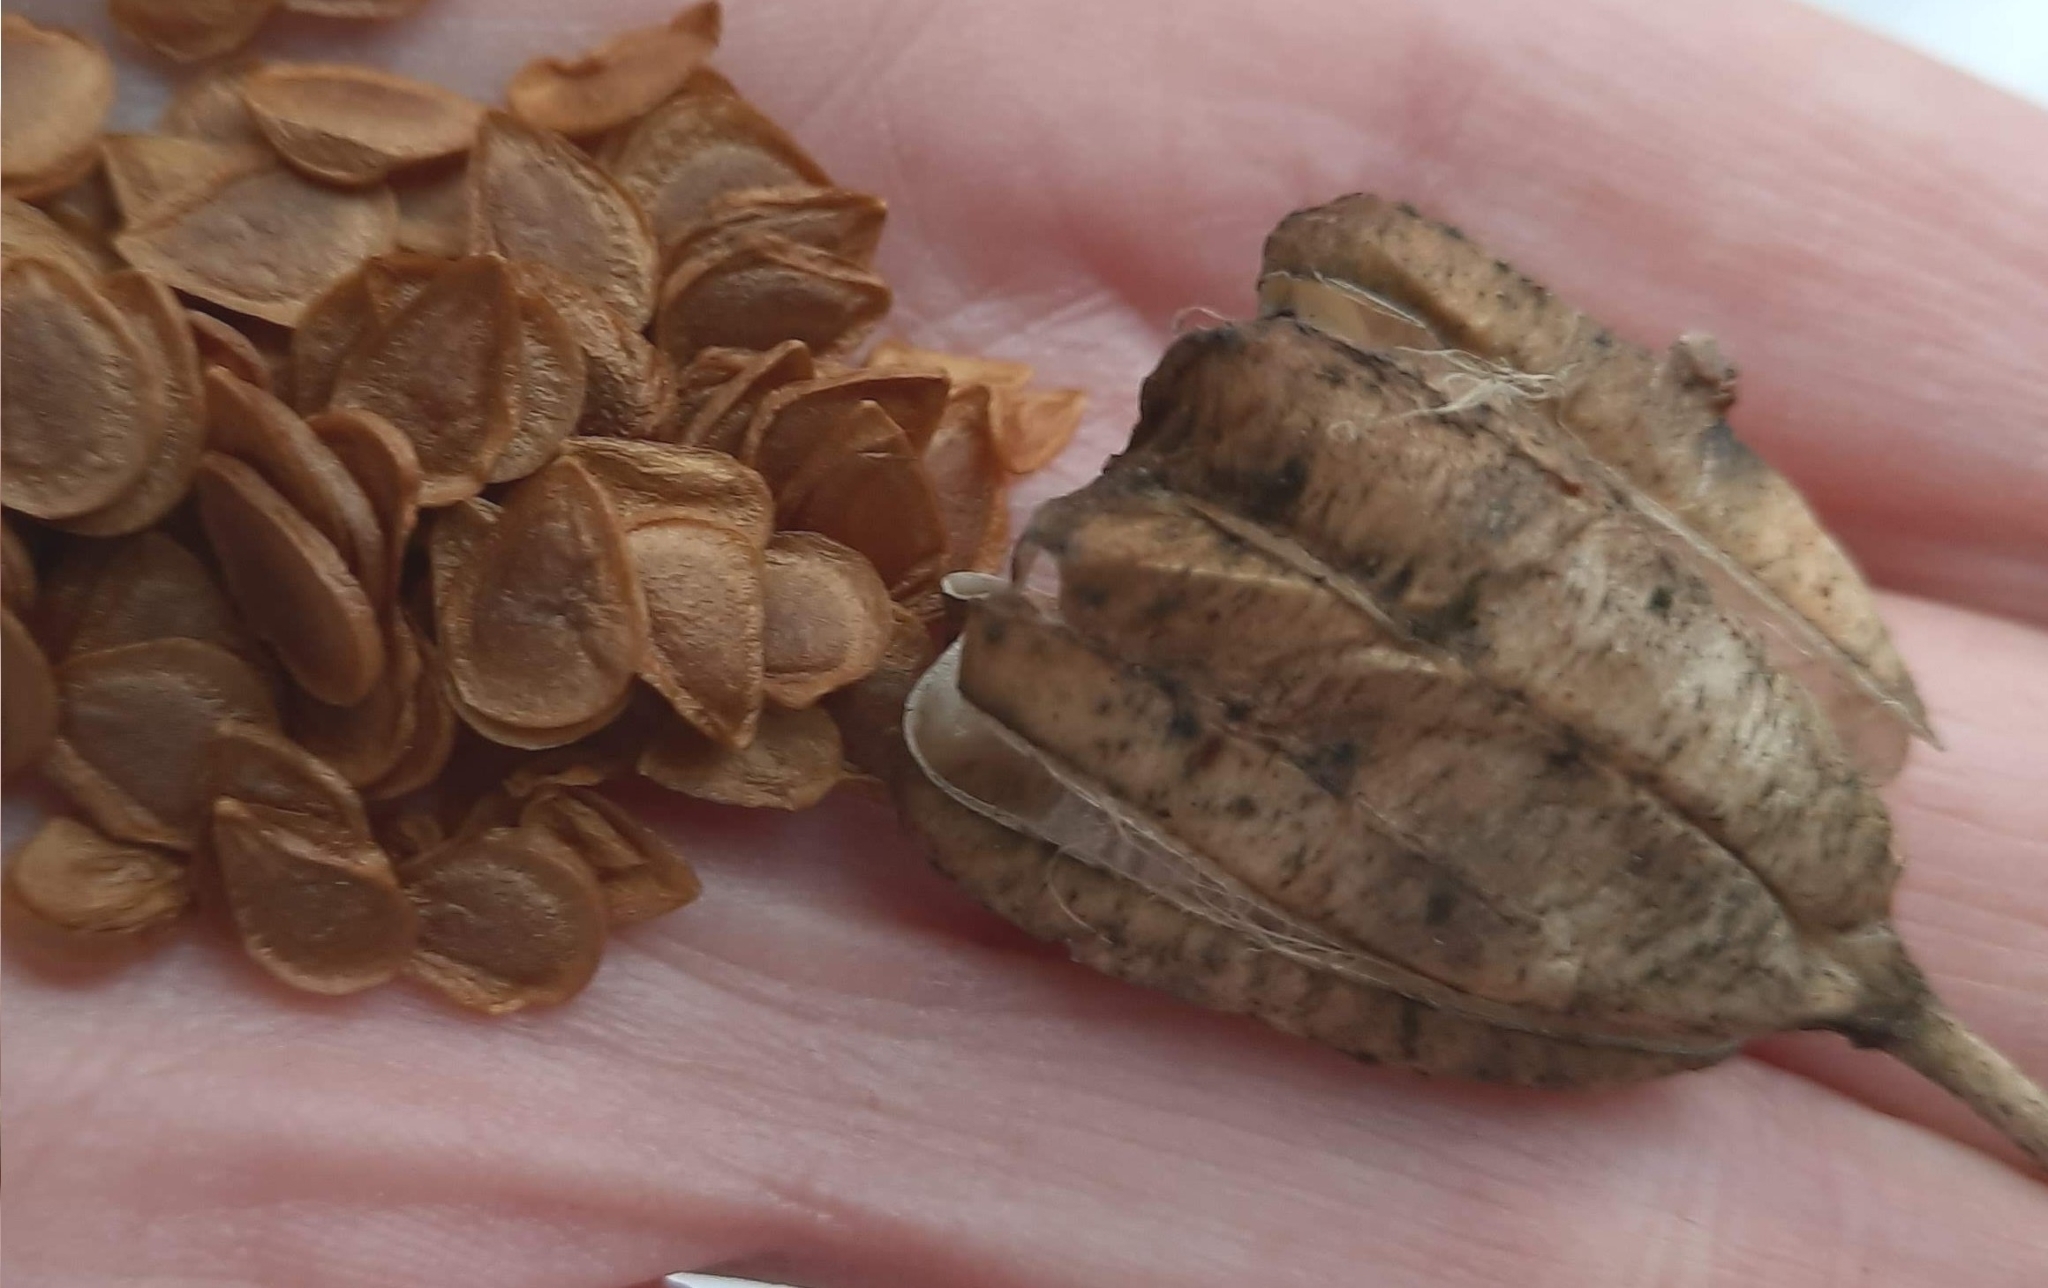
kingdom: Plantae
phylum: Tracheophyta
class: Liliopsida
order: Liliales
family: Liliaceae
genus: Lilium
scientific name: Lilium martagon
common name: Martagon lily
